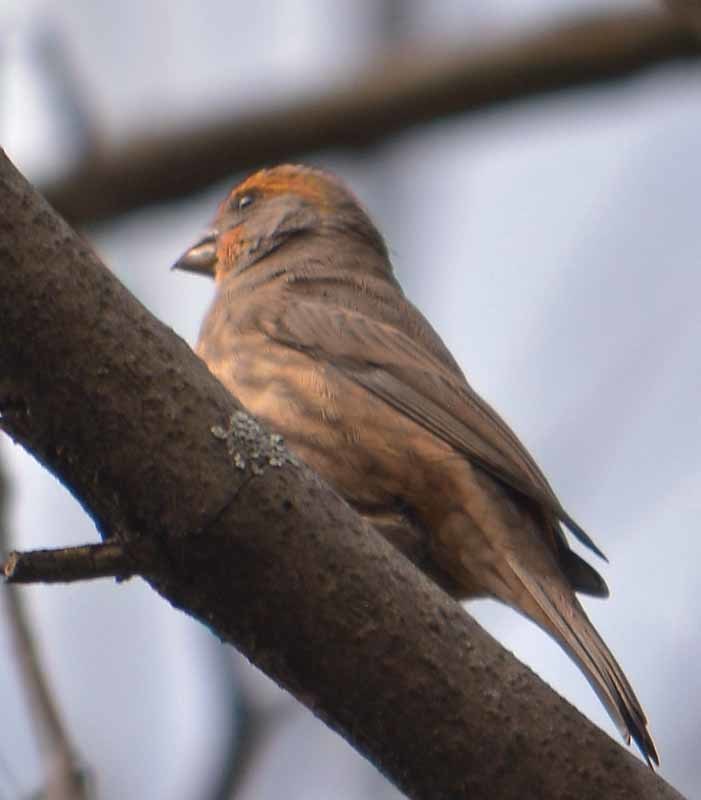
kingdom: Animalia
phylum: Chordata
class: Aves
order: Passeriformes
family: Fringillidae
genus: Haemorhous
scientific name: Haemorhous mexicanus
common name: House finch
